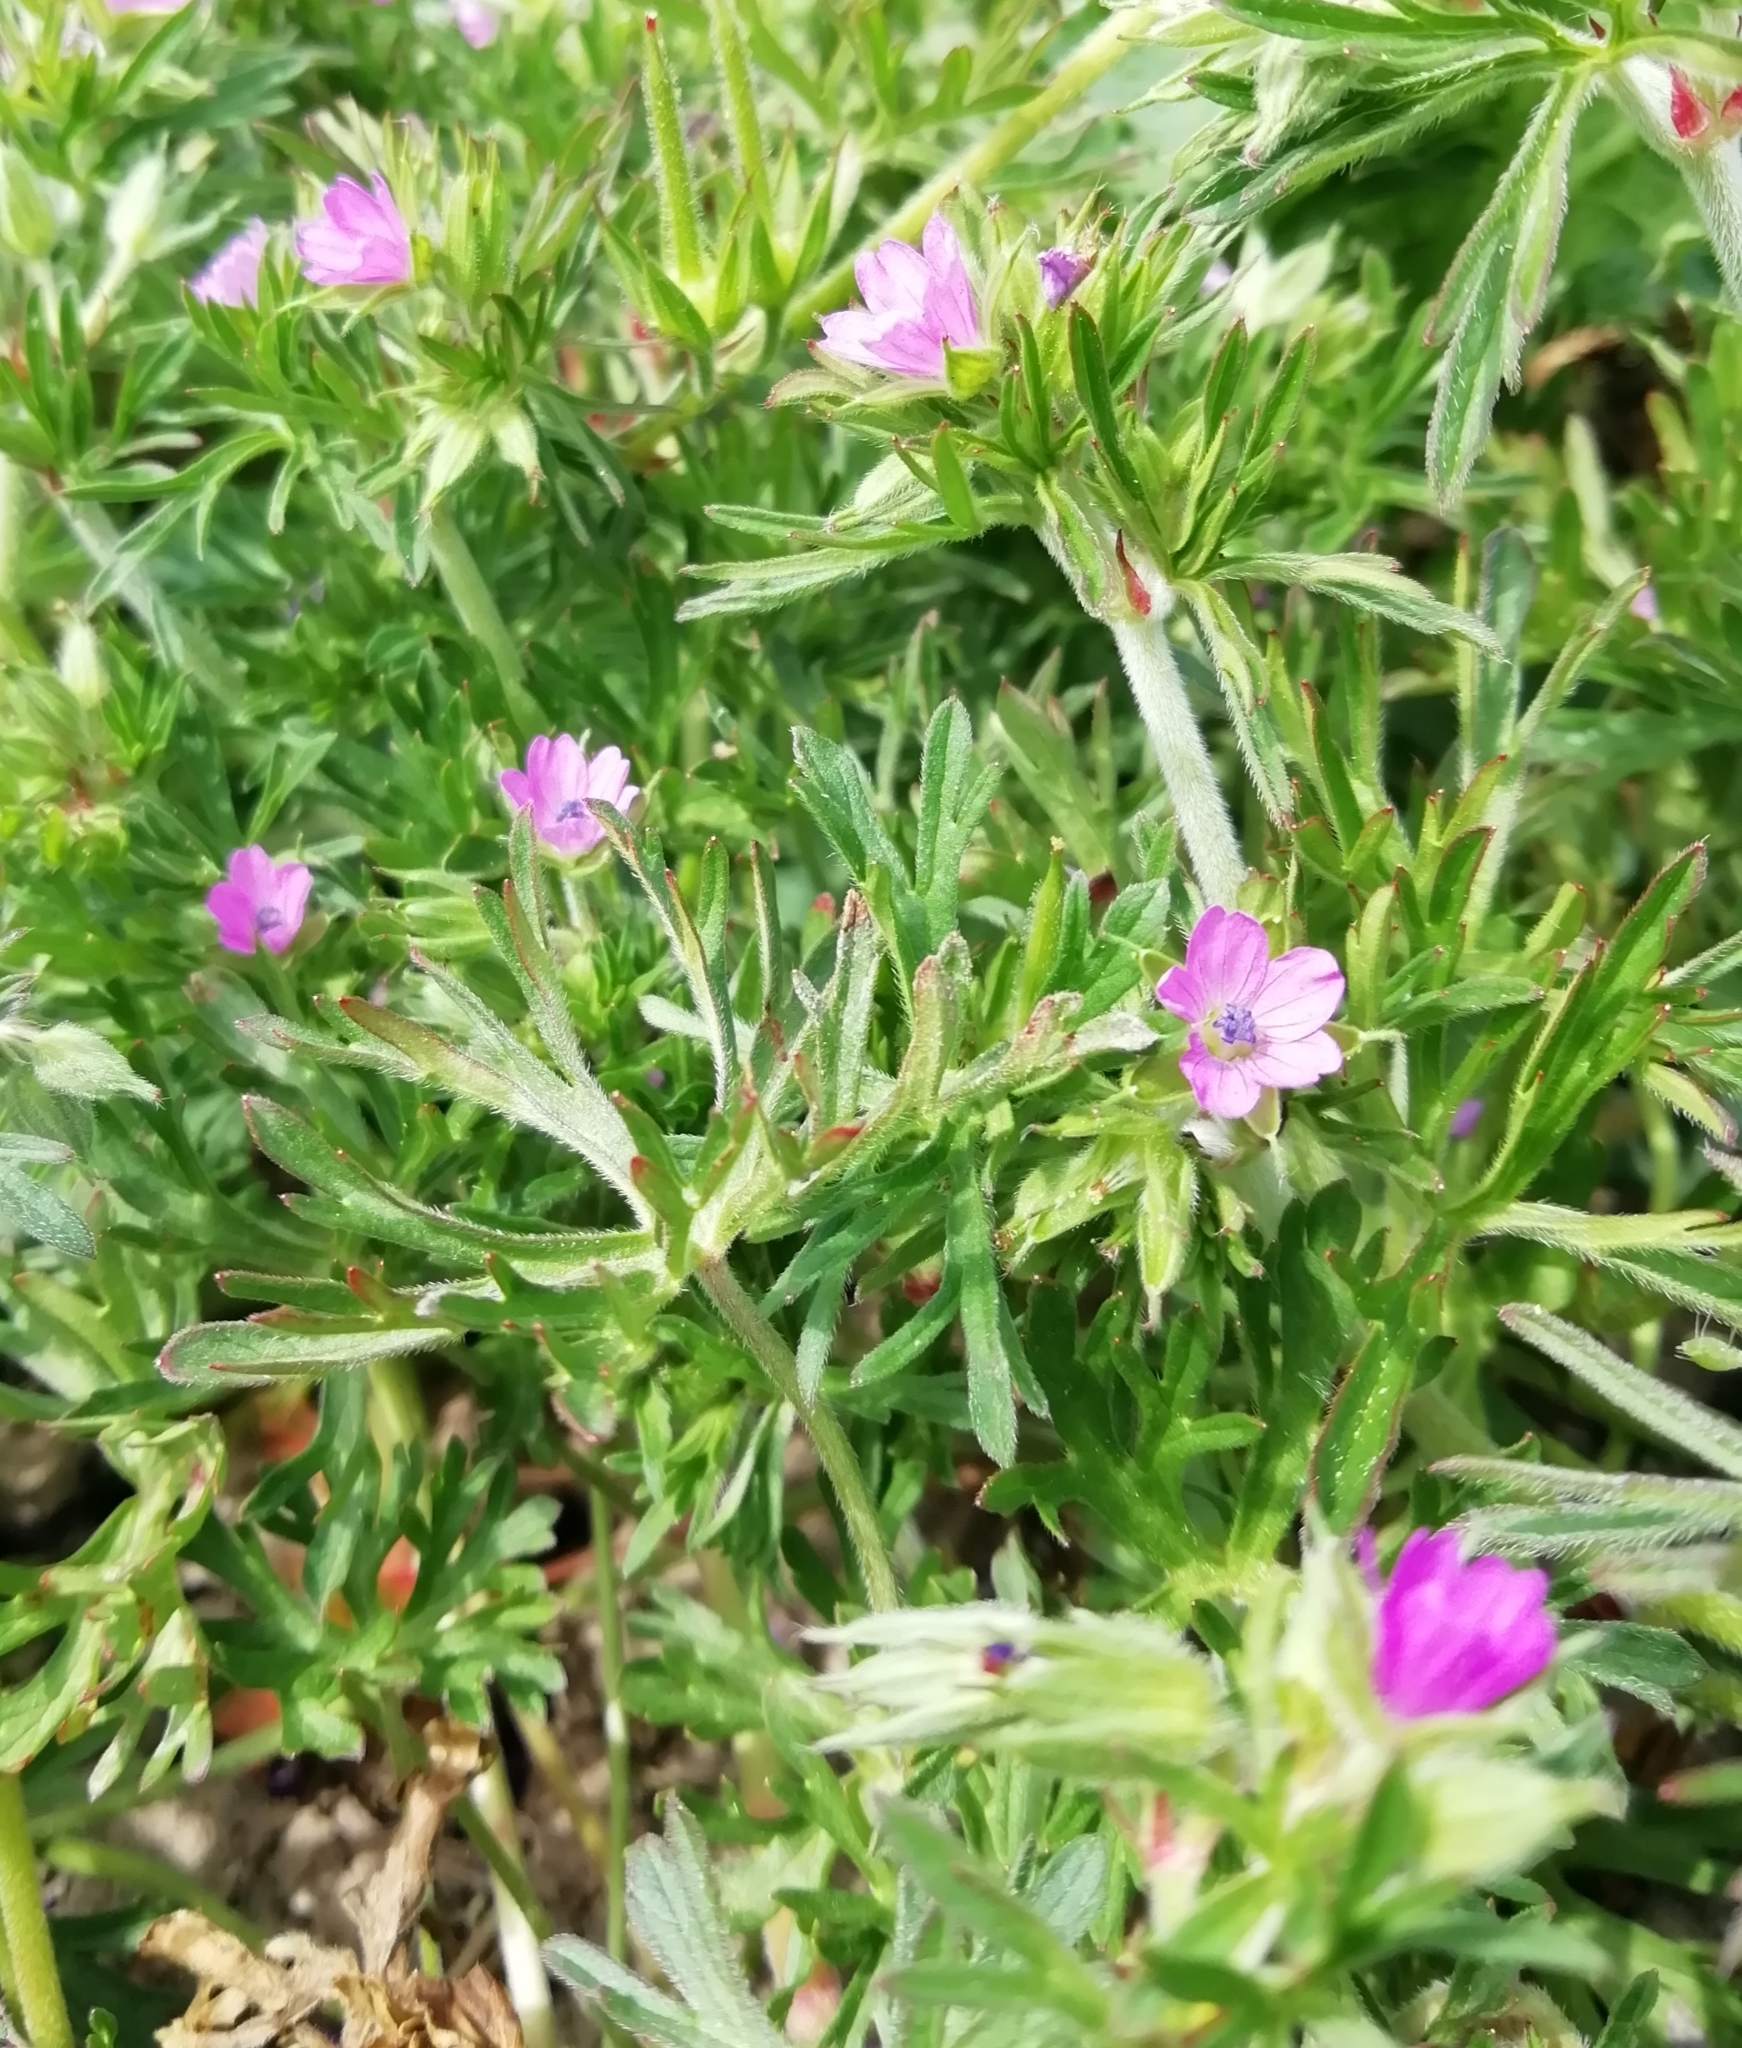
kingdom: Plantae
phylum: Tracheophyta
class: Magnoliopsida
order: Geraniales
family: Geraniaceae
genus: Geranium
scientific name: Geranium dissectum
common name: Cut-leaved crane's-bill
